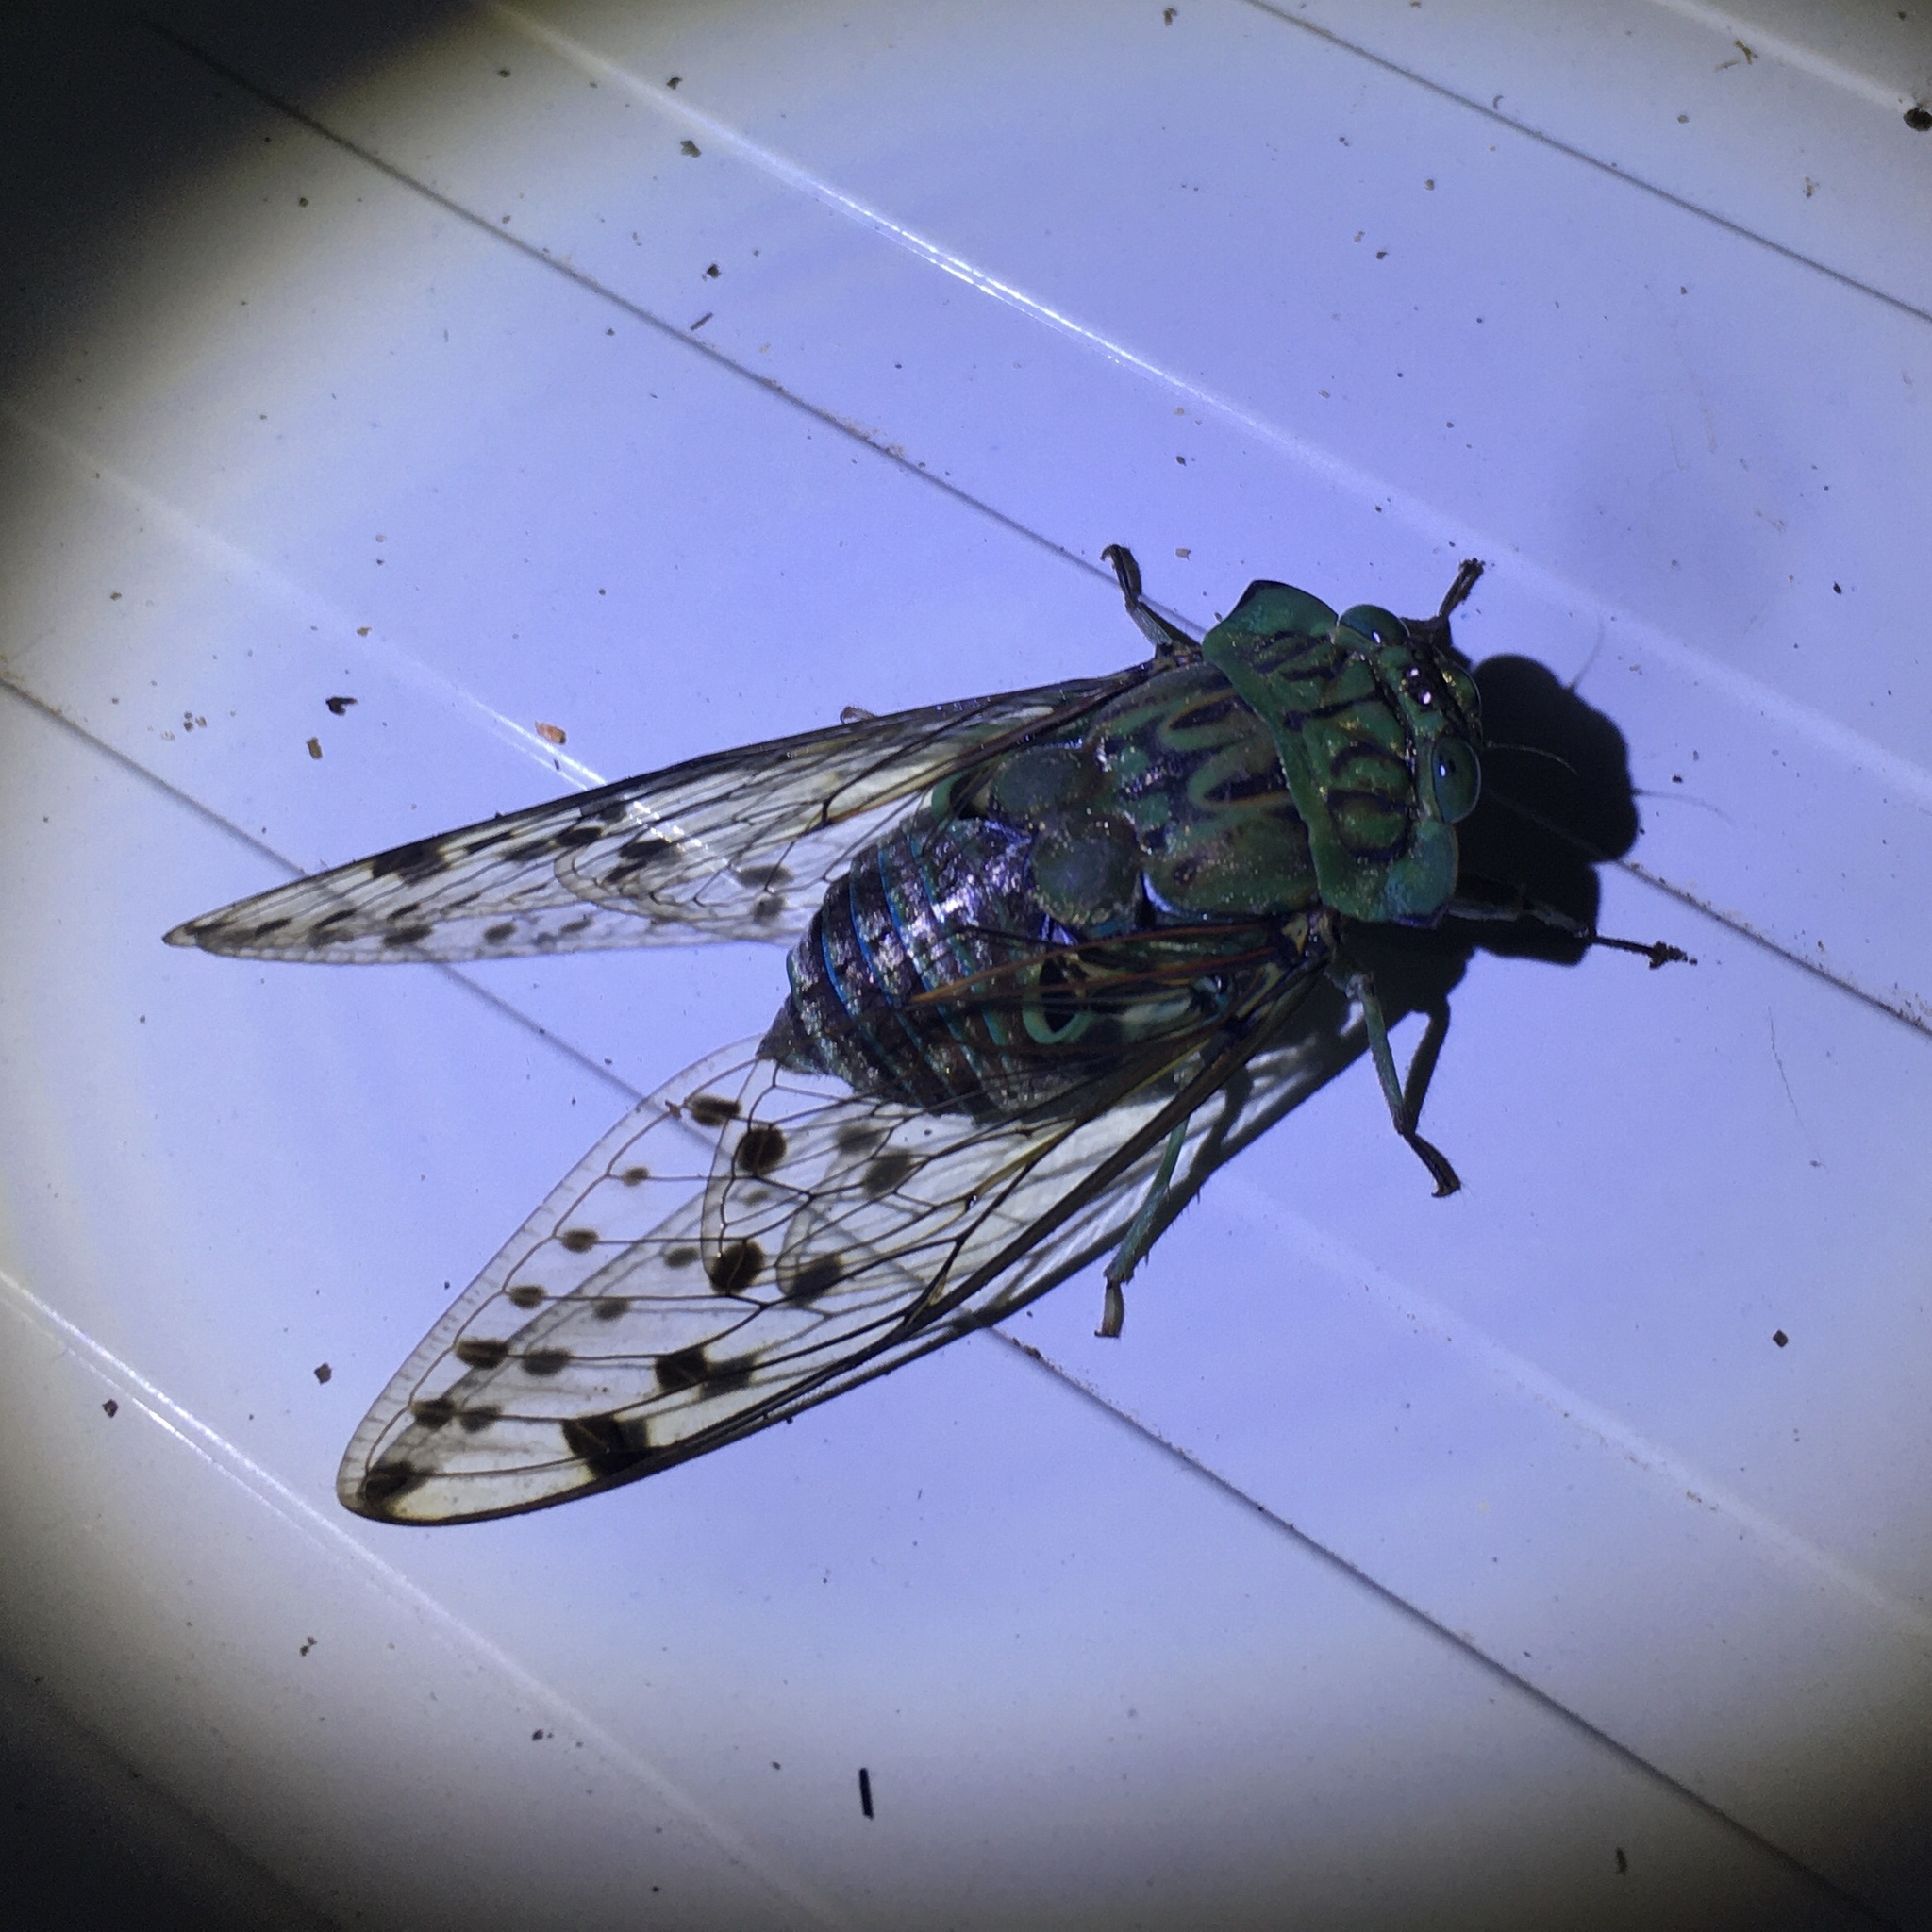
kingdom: Animalia
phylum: Arthropoda
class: Insecta
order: Hemiptera
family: Cicadidae
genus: Zammara
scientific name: Zammara tympanum
